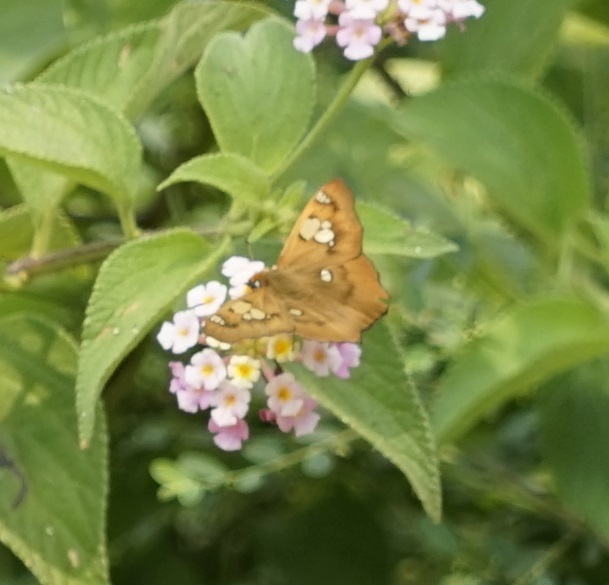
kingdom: Animalia
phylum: Arthropoda
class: Insecta
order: Lepidoptera
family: Hesperiidae
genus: Netrocoryne
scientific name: Netrocoryne repanda
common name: Bronze flat
